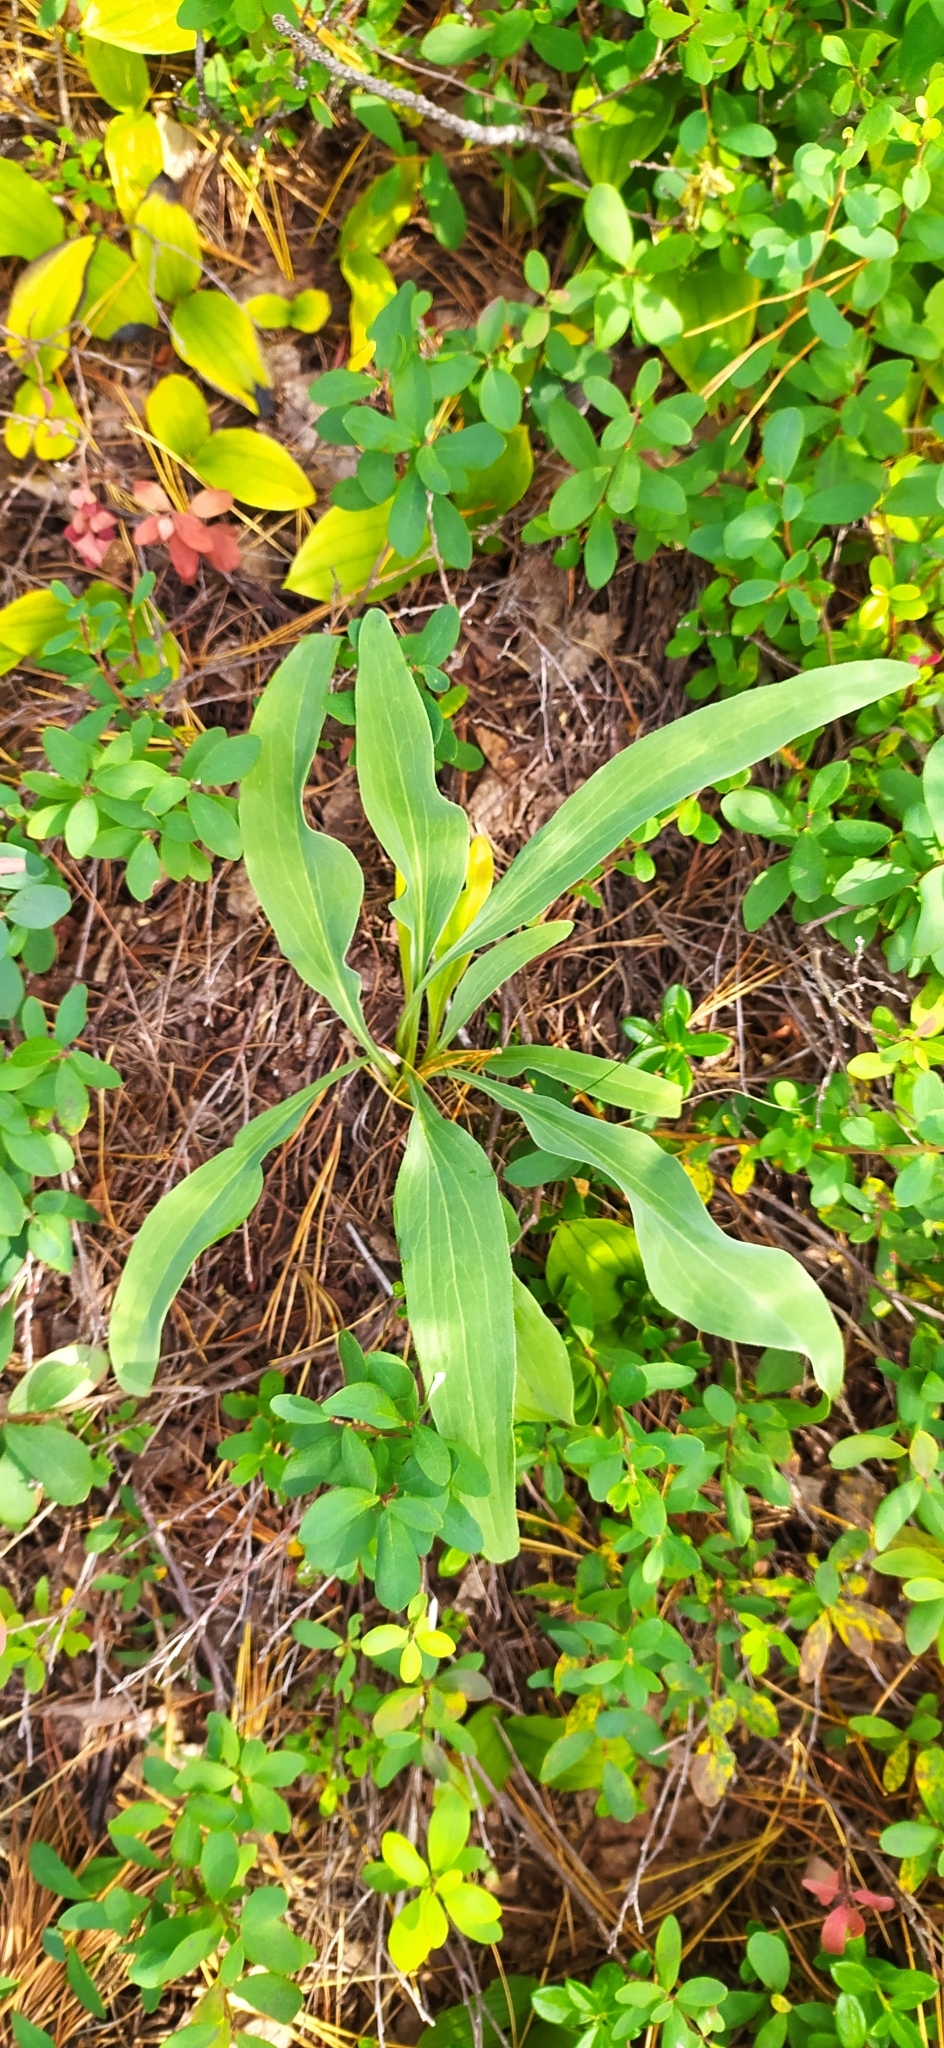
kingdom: Plantae
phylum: Tracheophyta
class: Magnoliopsida
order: Asterales
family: Asteraceae
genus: Scorzonera
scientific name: Scorzonera glabra
